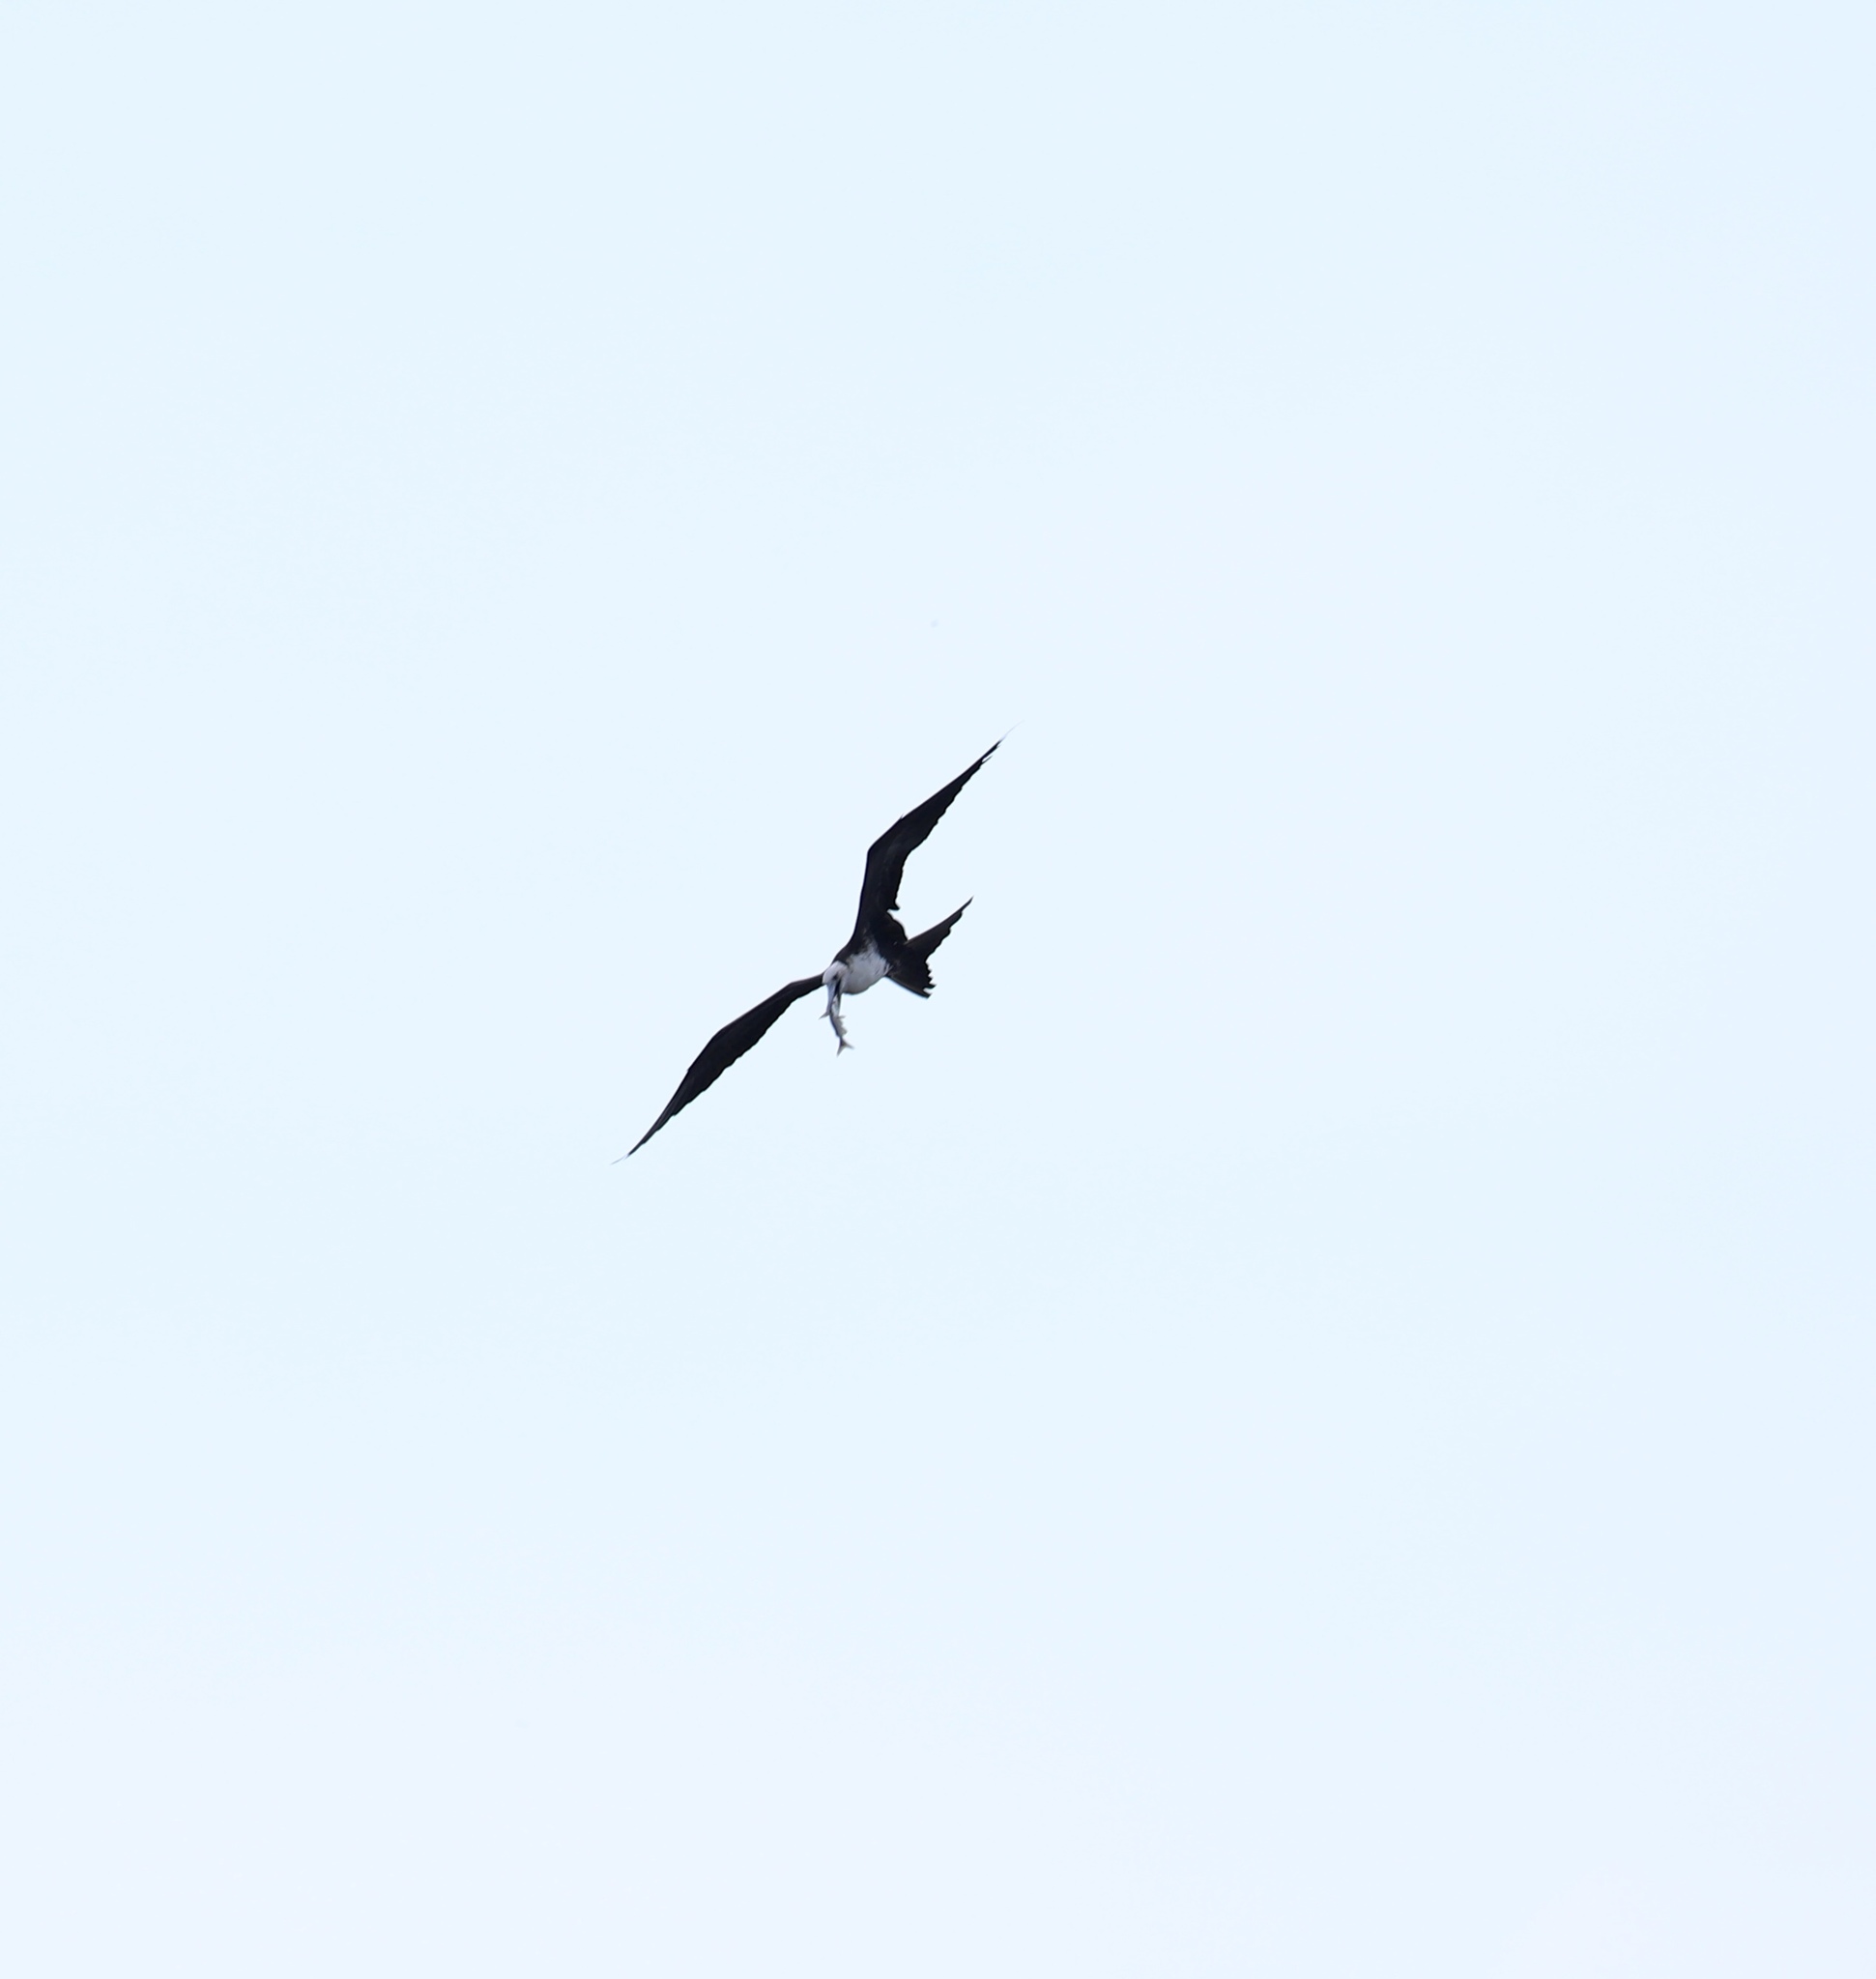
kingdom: Animalia
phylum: Chordata
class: Aves
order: Suliformes
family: Fregatidae
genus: Fregata
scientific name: Fregata magnificens
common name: Magnificent frigatebird
